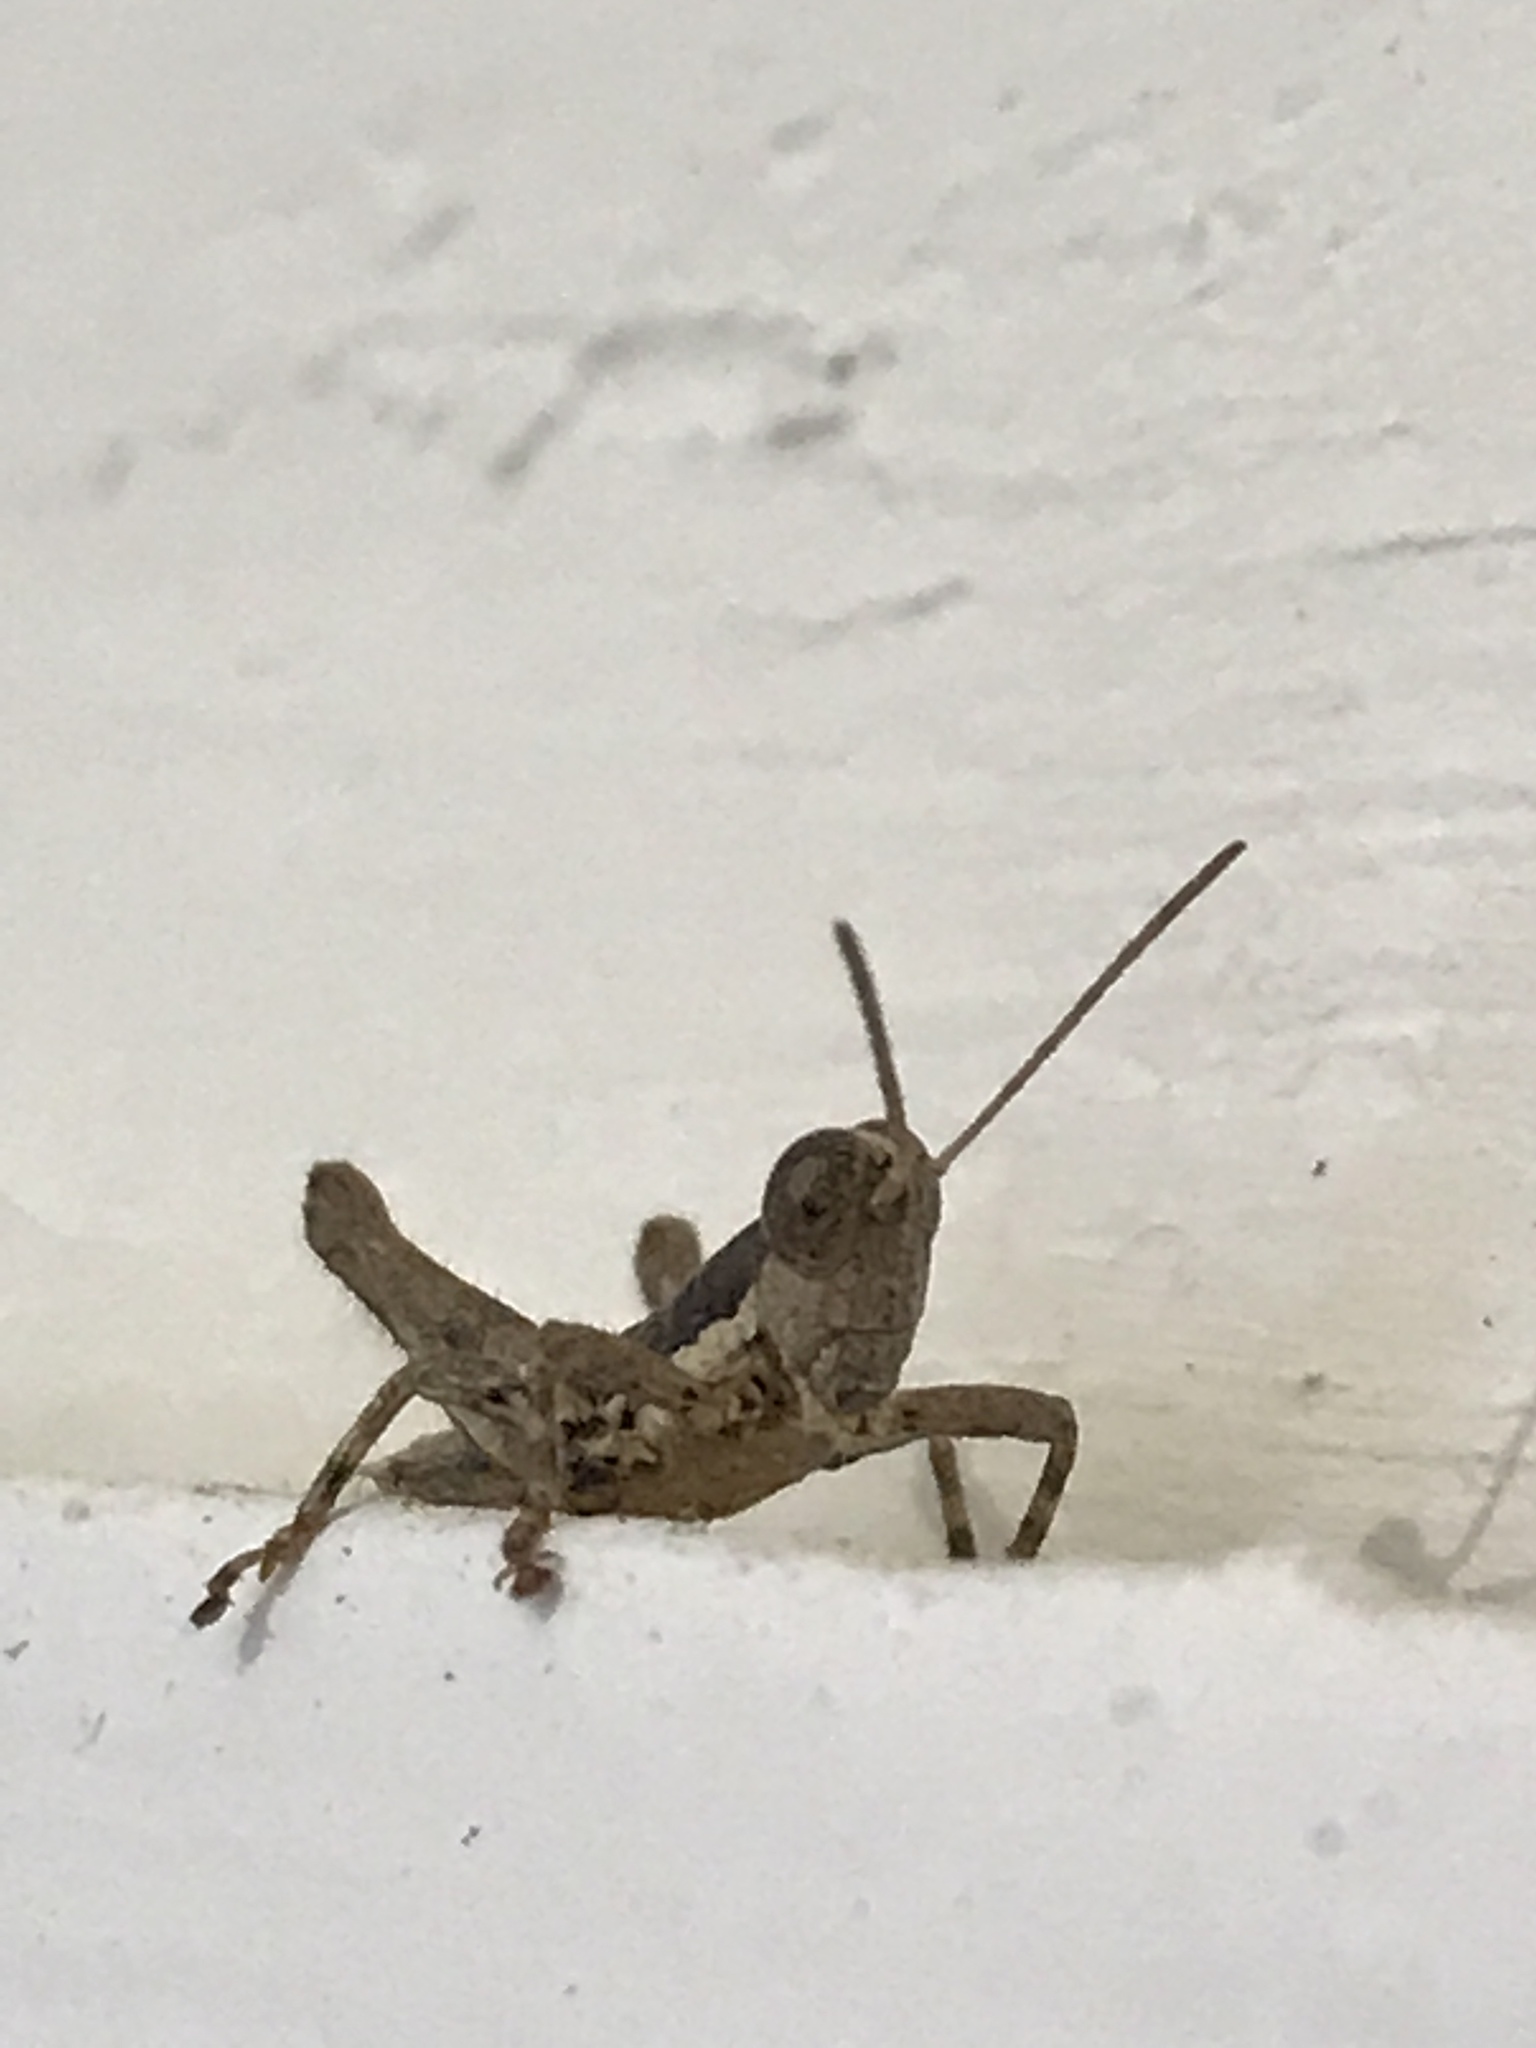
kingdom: Animalia
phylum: Arthropoda
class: Insecta
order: Orthoptera
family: Acrididae
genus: Arminda
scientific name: Arminda brunneri
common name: Tenerife rock grasshopper
